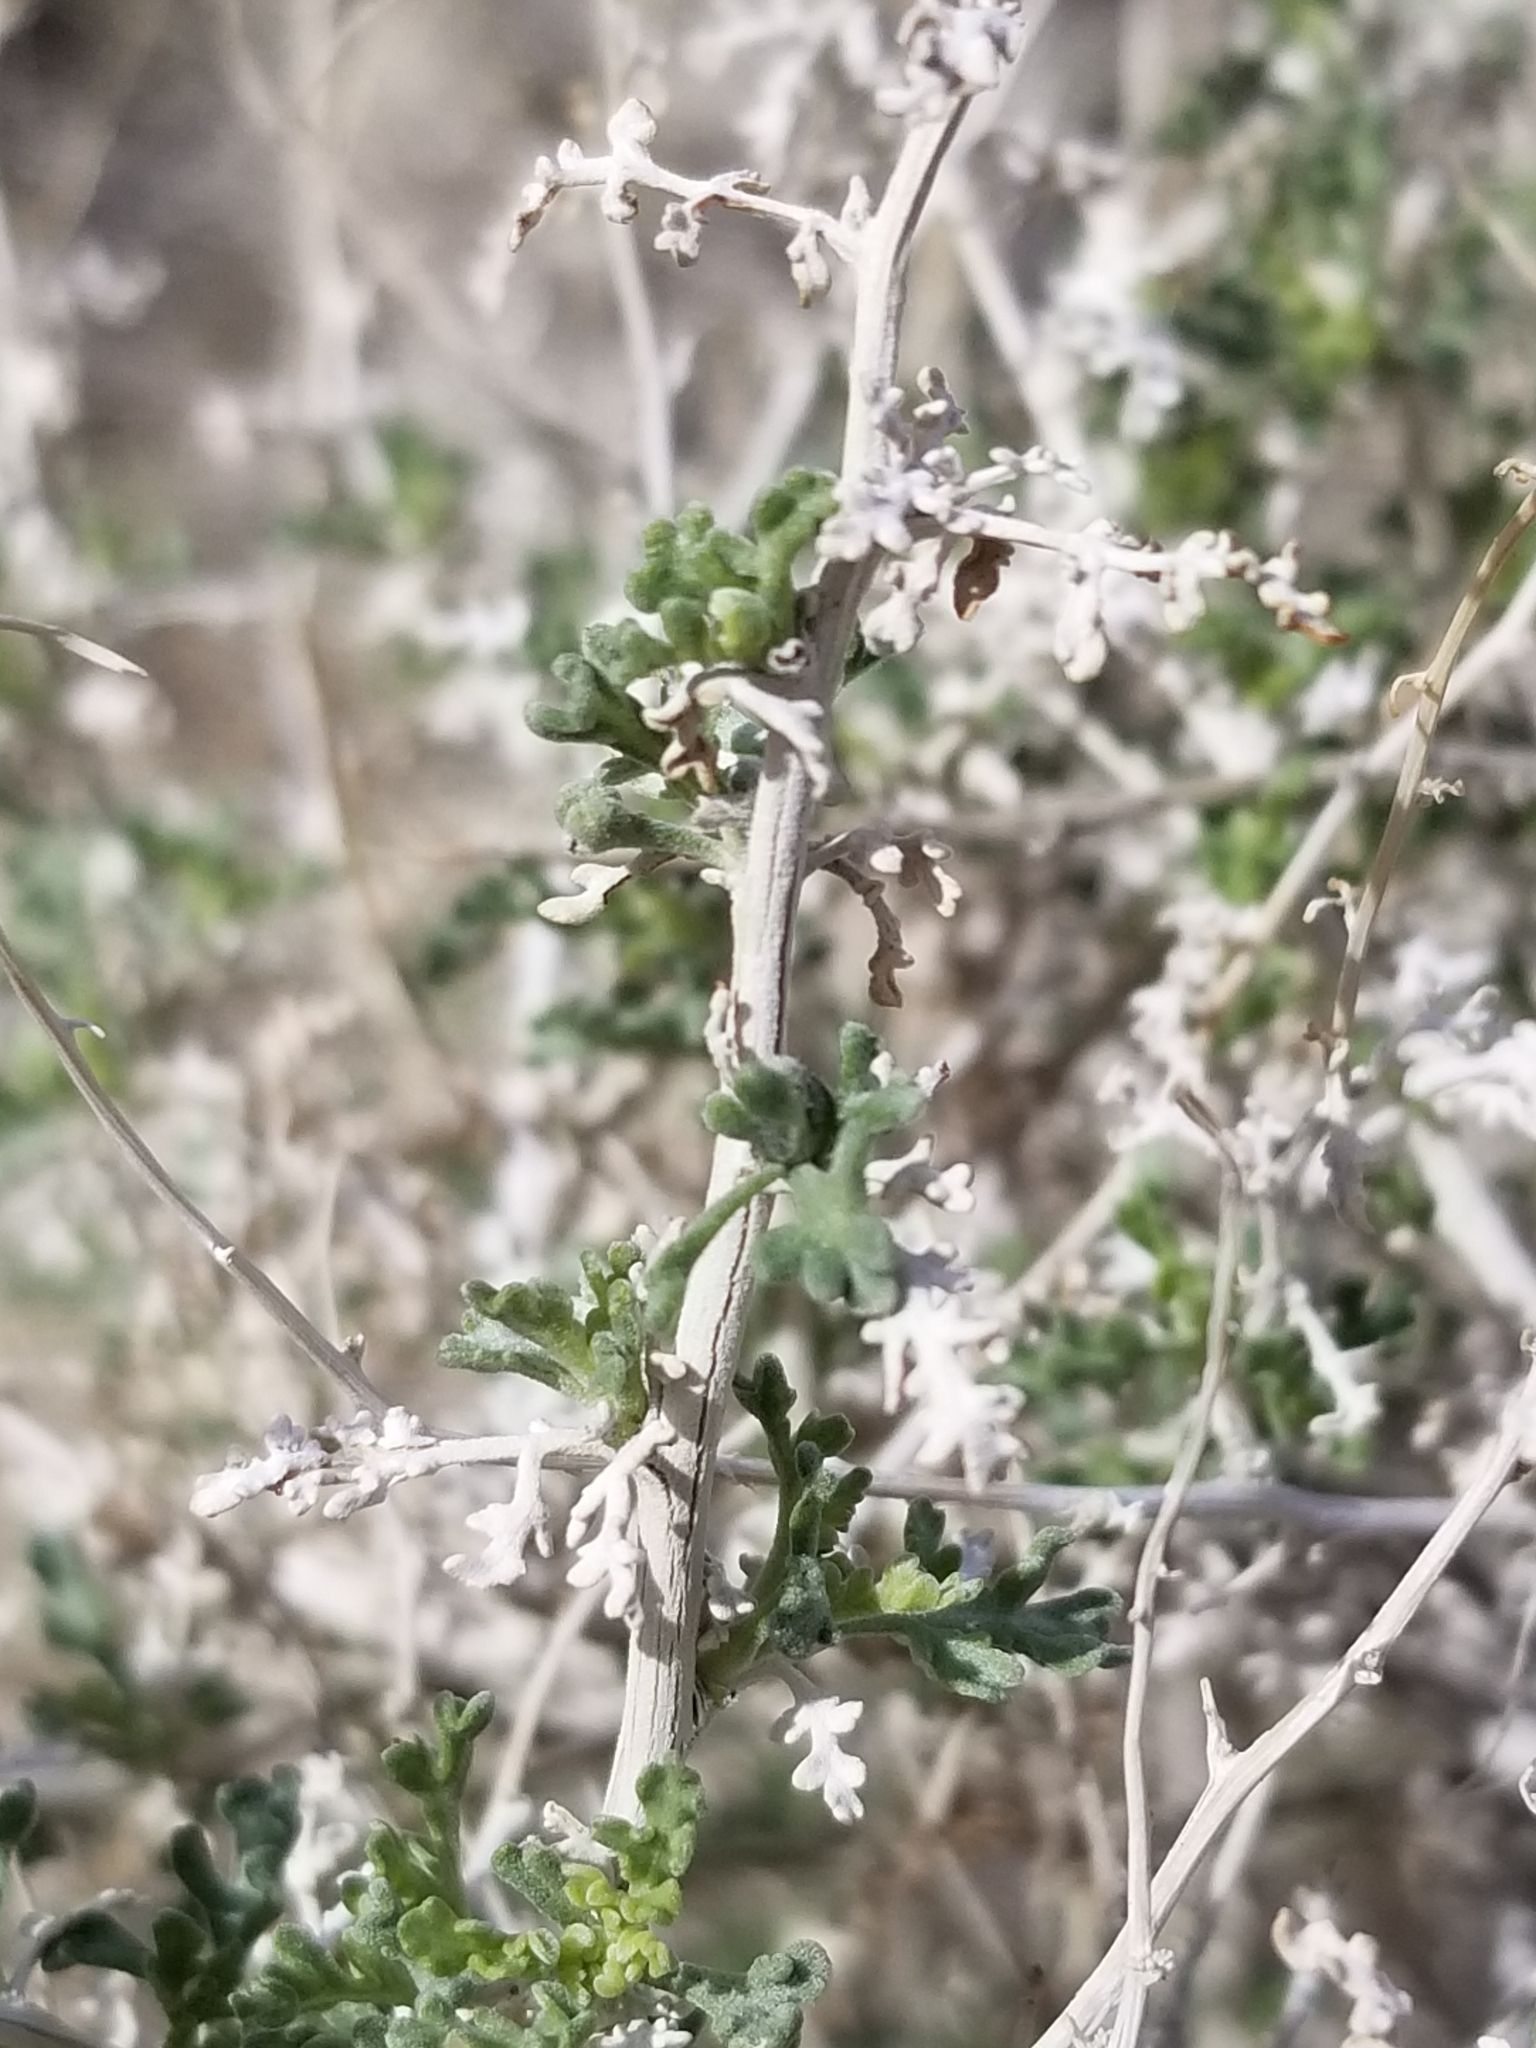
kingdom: Plantae
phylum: Tracheophyta
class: Magnoliopsida
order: Asterales
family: Asteraceae
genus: Ambrosia
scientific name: Ambrosia dumosa
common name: Bur-sage
